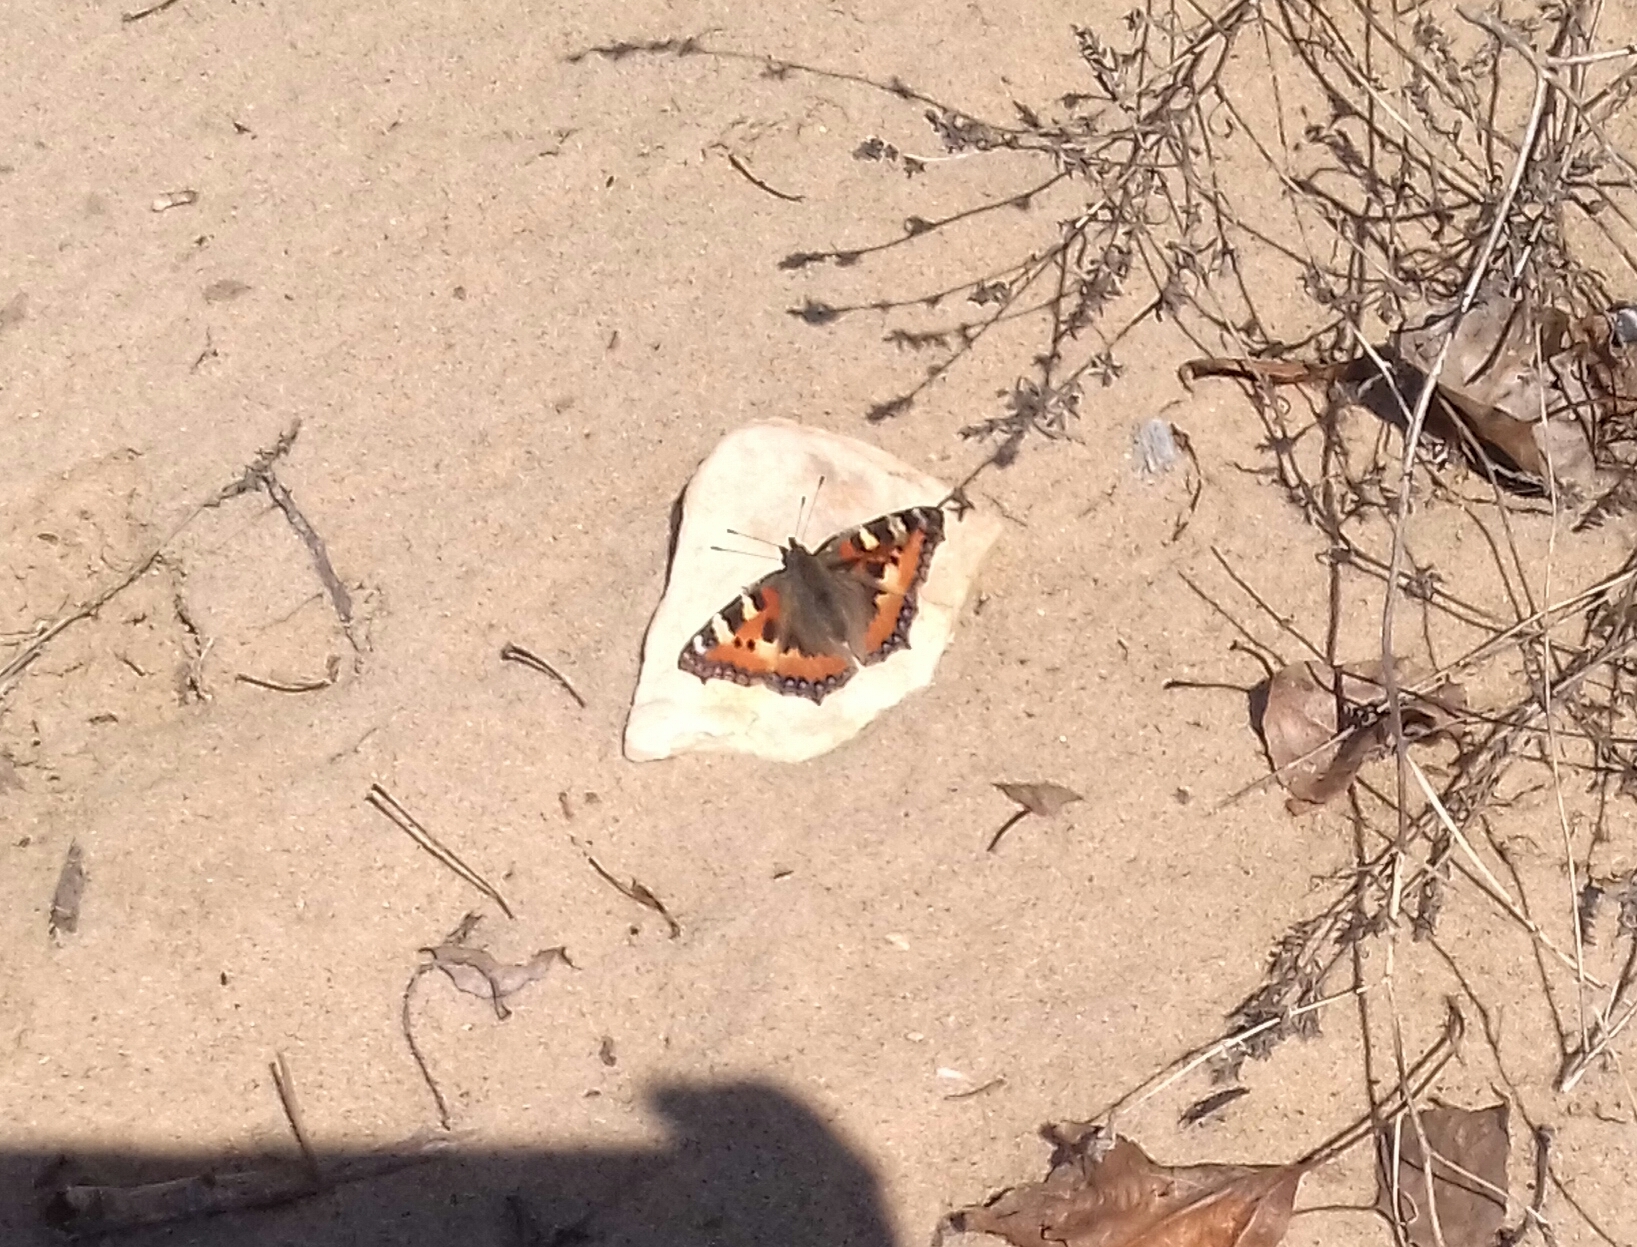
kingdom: Animalia
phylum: Arthropoda
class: Insecta
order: Lepidoptera
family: Nymphalidae
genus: Aglais
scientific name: Aglais urticae
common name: Small tortoiseshell
